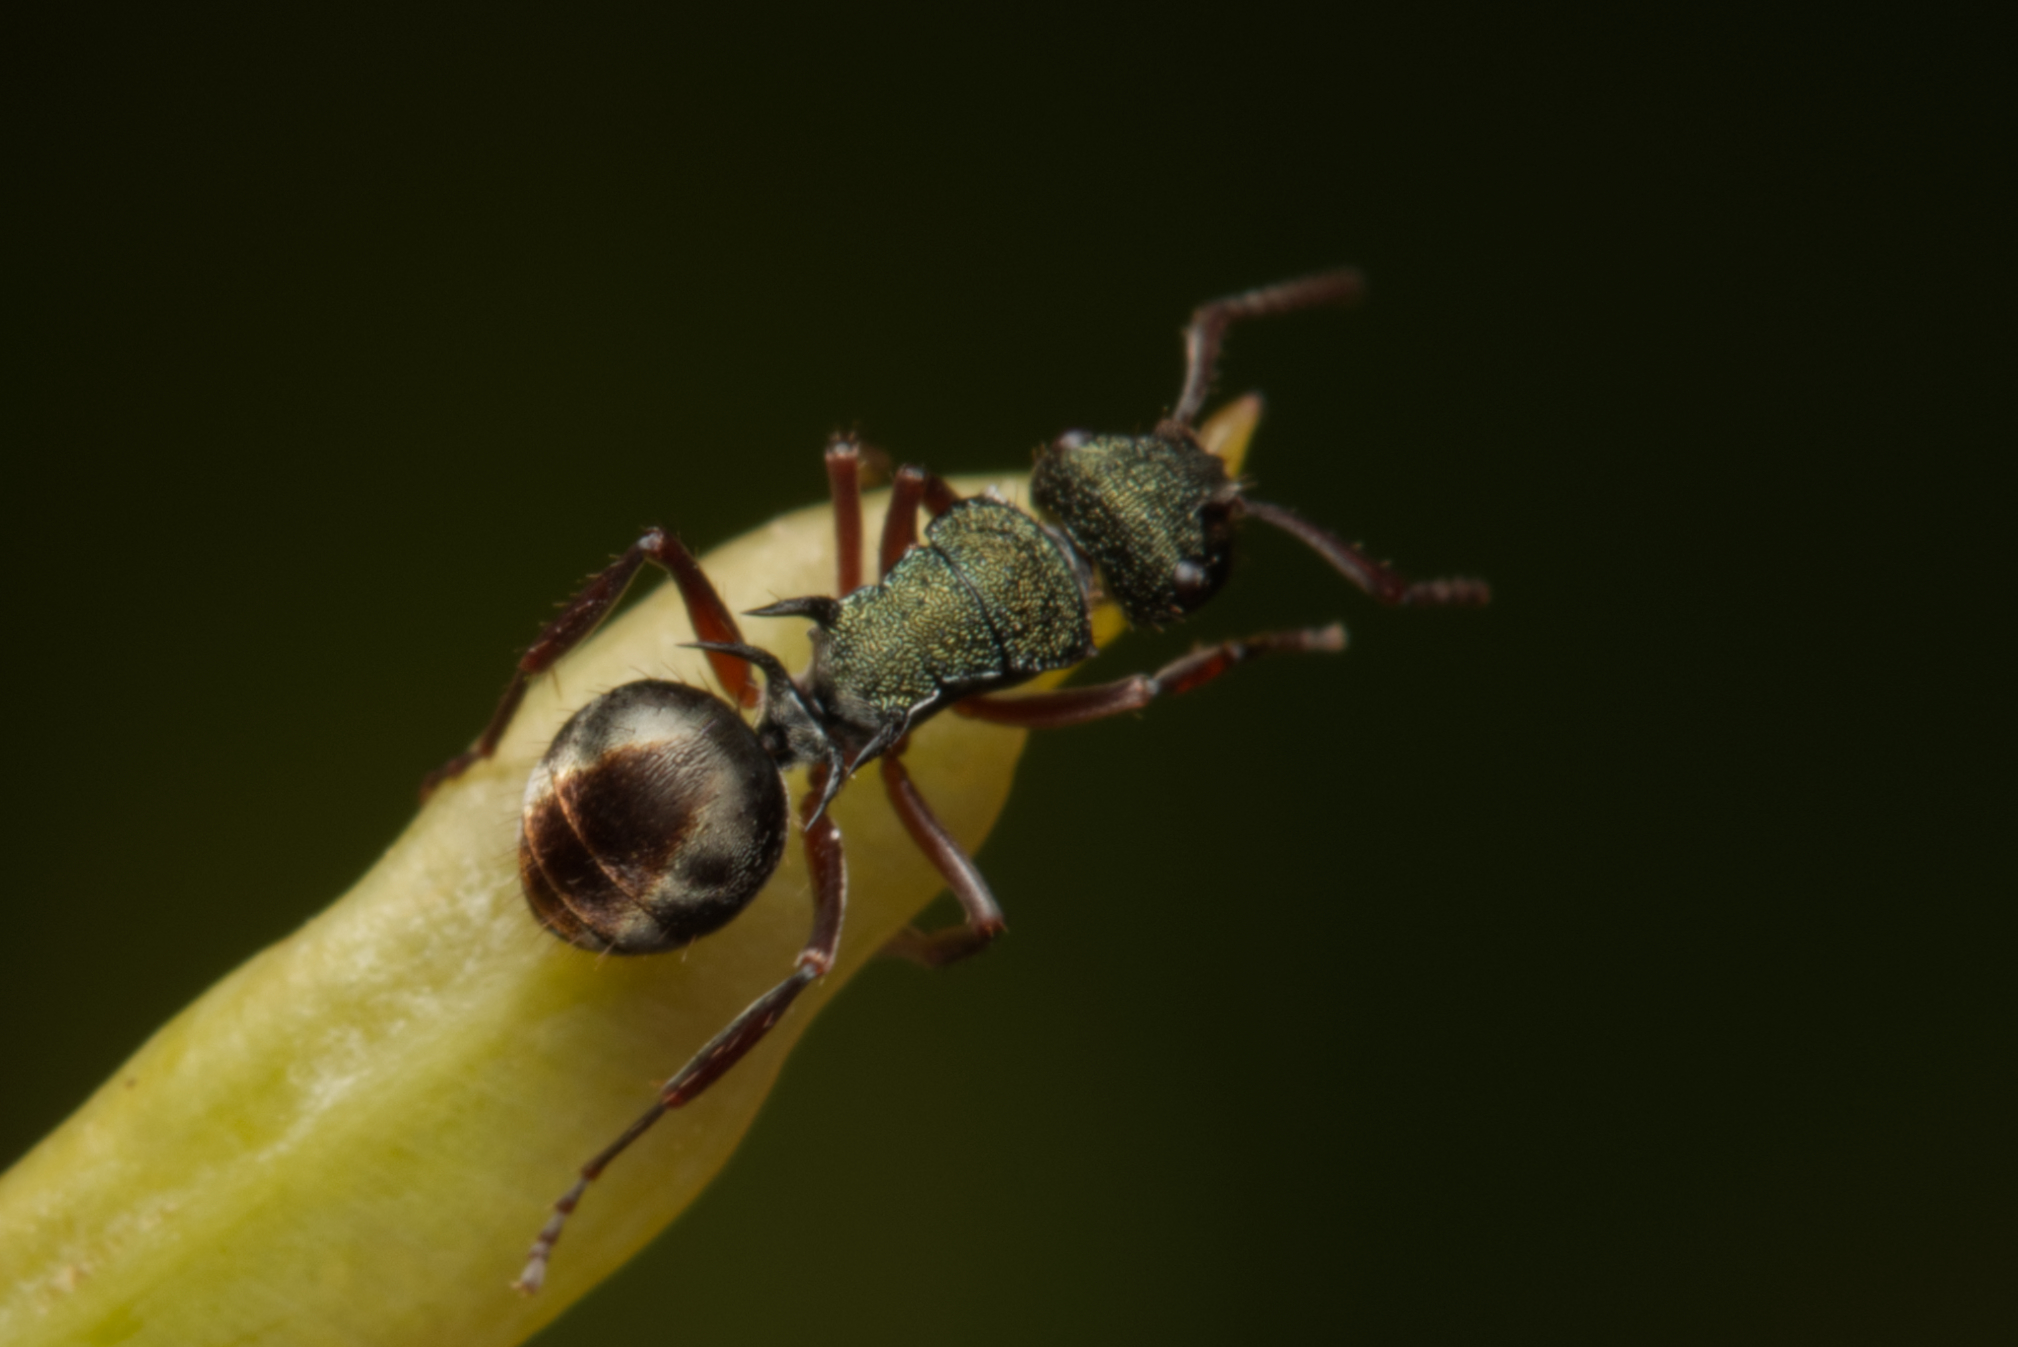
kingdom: Animalia
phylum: Arthropoda
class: Insecta
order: Hymenoptera
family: Formicidae
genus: Polyrhachis
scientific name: Polyrhachis hookeri
